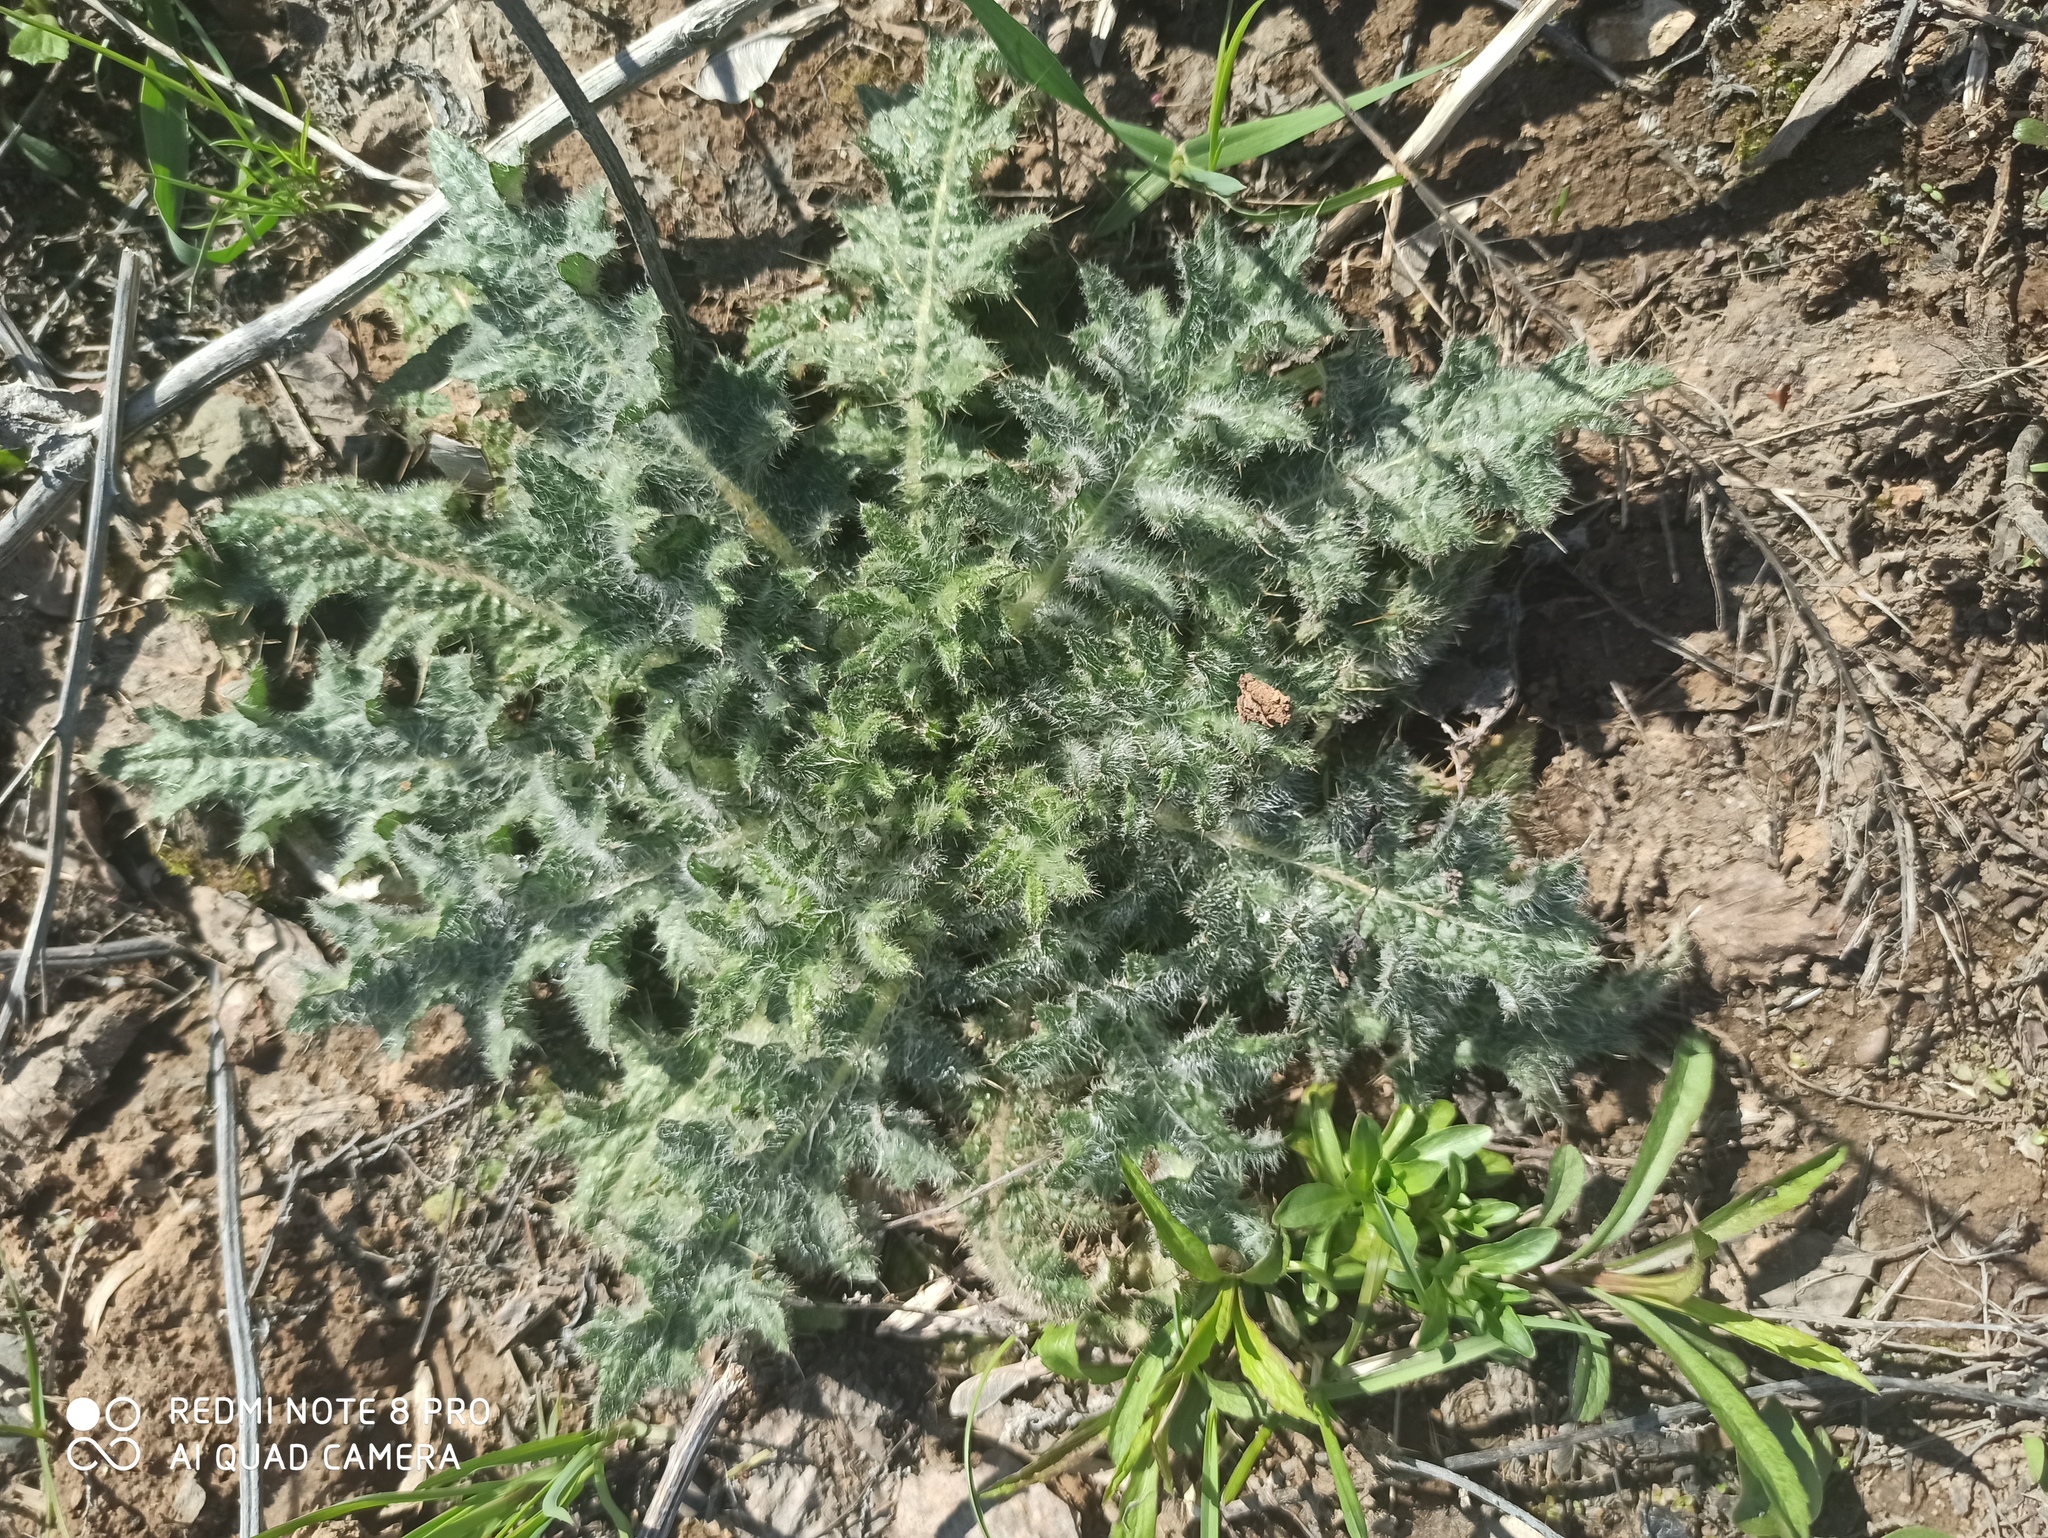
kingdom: Plantae
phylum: Tracheophyta
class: Magnoliopsida
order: Asterales
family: Asteraceae
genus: Cirsium
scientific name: Cirsium vulgare
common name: Bull thistle
